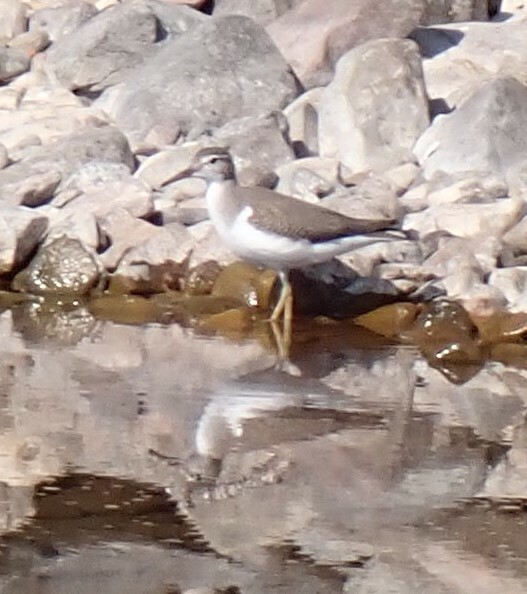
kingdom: Animalia
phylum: Chordata
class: Aves
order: Charadriiformes
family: Scolopacidae
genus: Actitis
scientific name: Actitis macularius
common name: Spotted sandpiper
